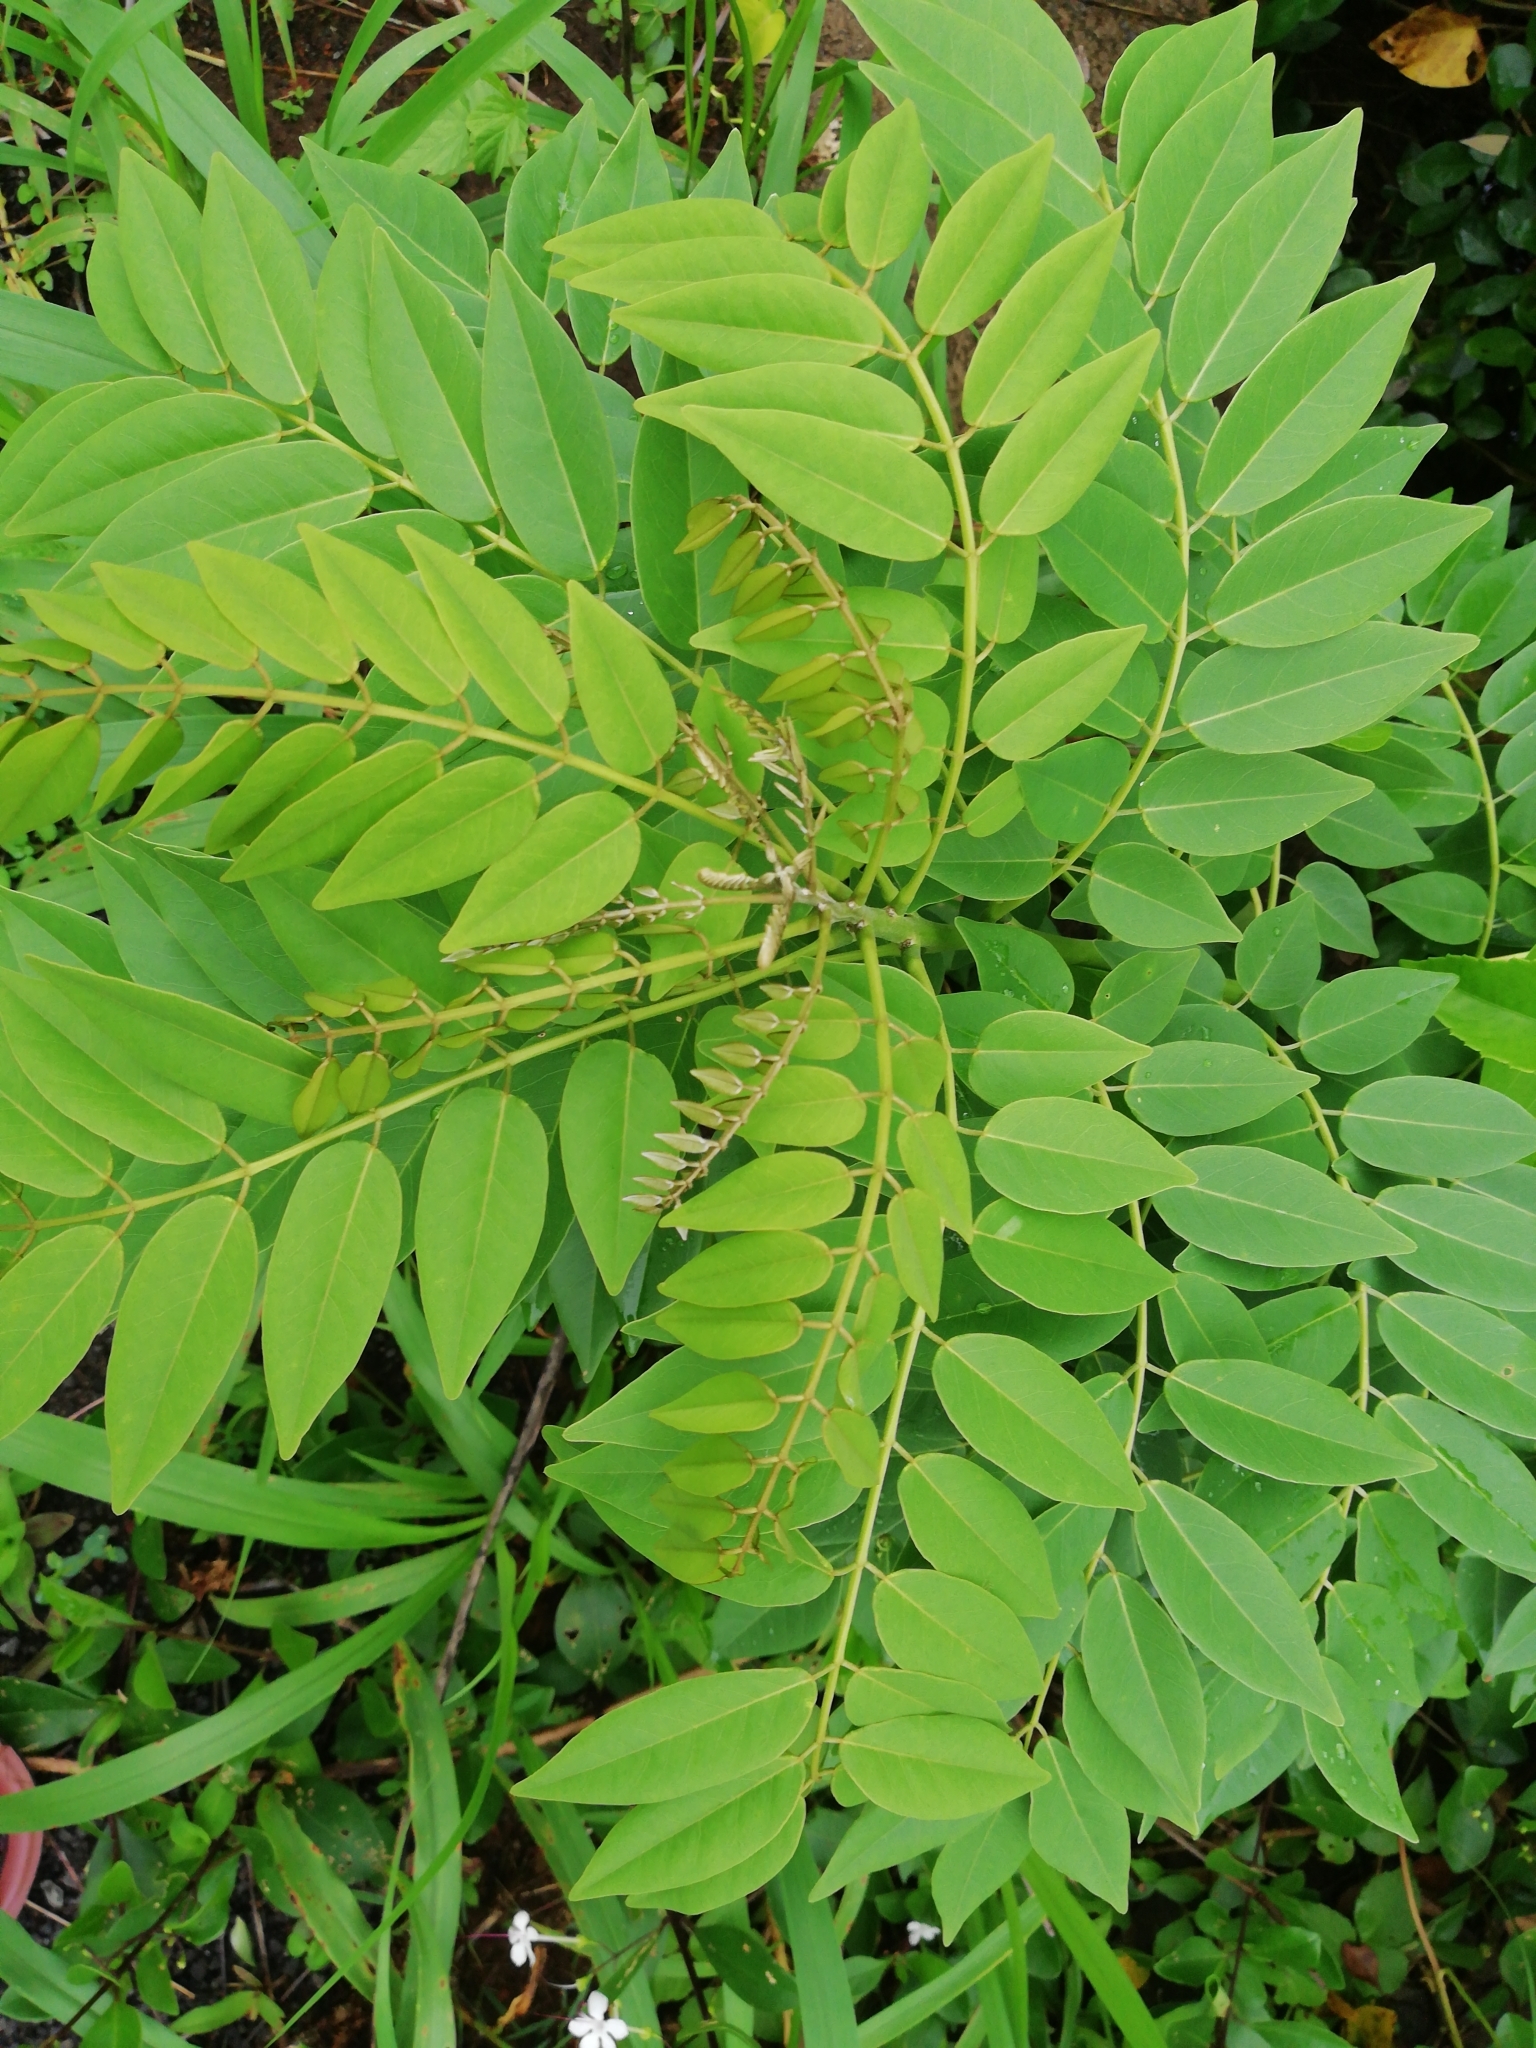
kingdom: Plantae
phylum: Tracheophyta
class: Magnoliopsida
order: Fabales
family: Fabaceae
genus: Gliricidia
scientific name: Gliricidia sepium
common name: Quickstick
